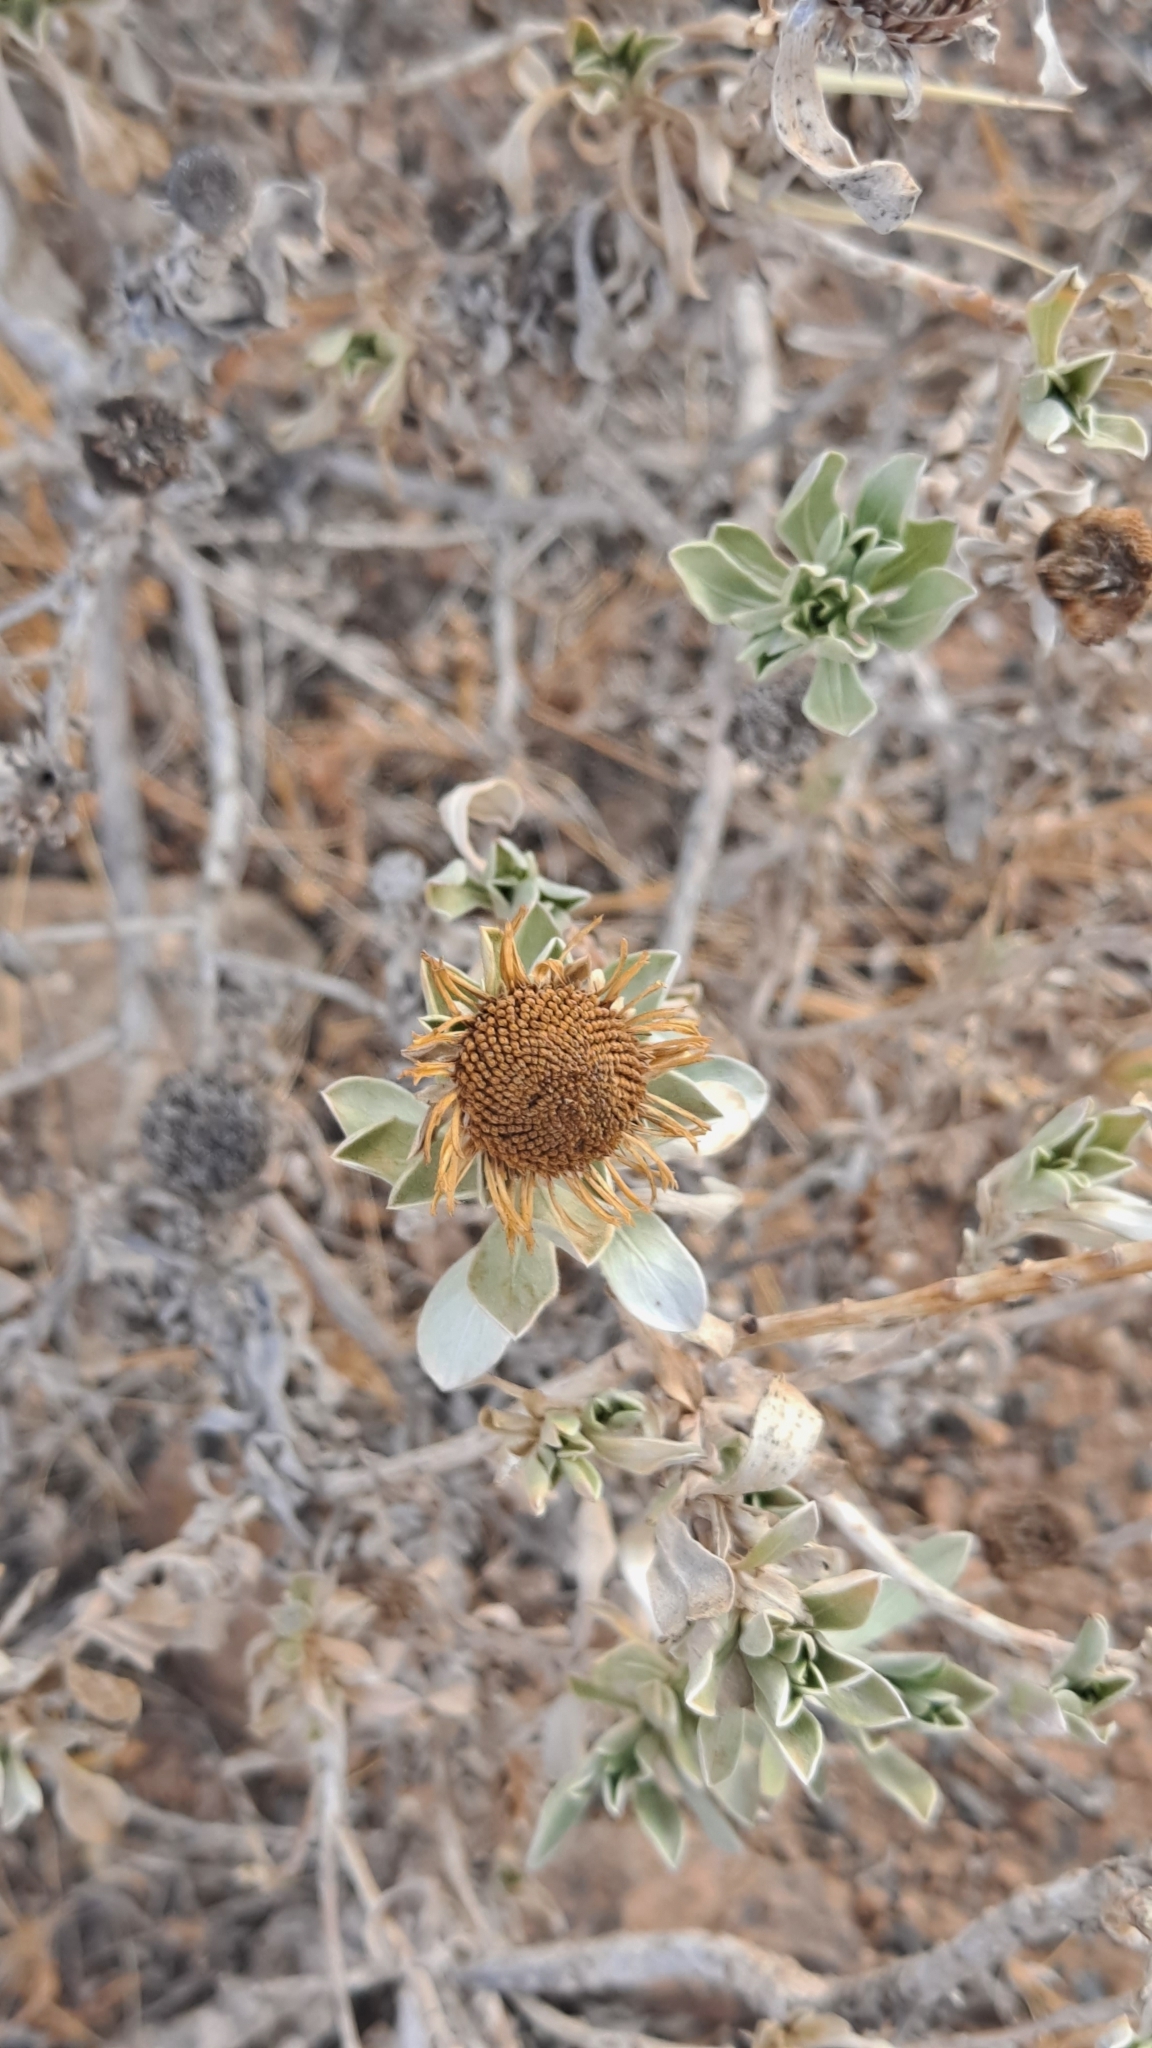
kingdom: Plantae
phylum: Tracheophyta
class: Magnoliopsida
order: Asterales
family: Asteraceae
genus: Asteriscus
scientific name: Asteriscus intermedius
